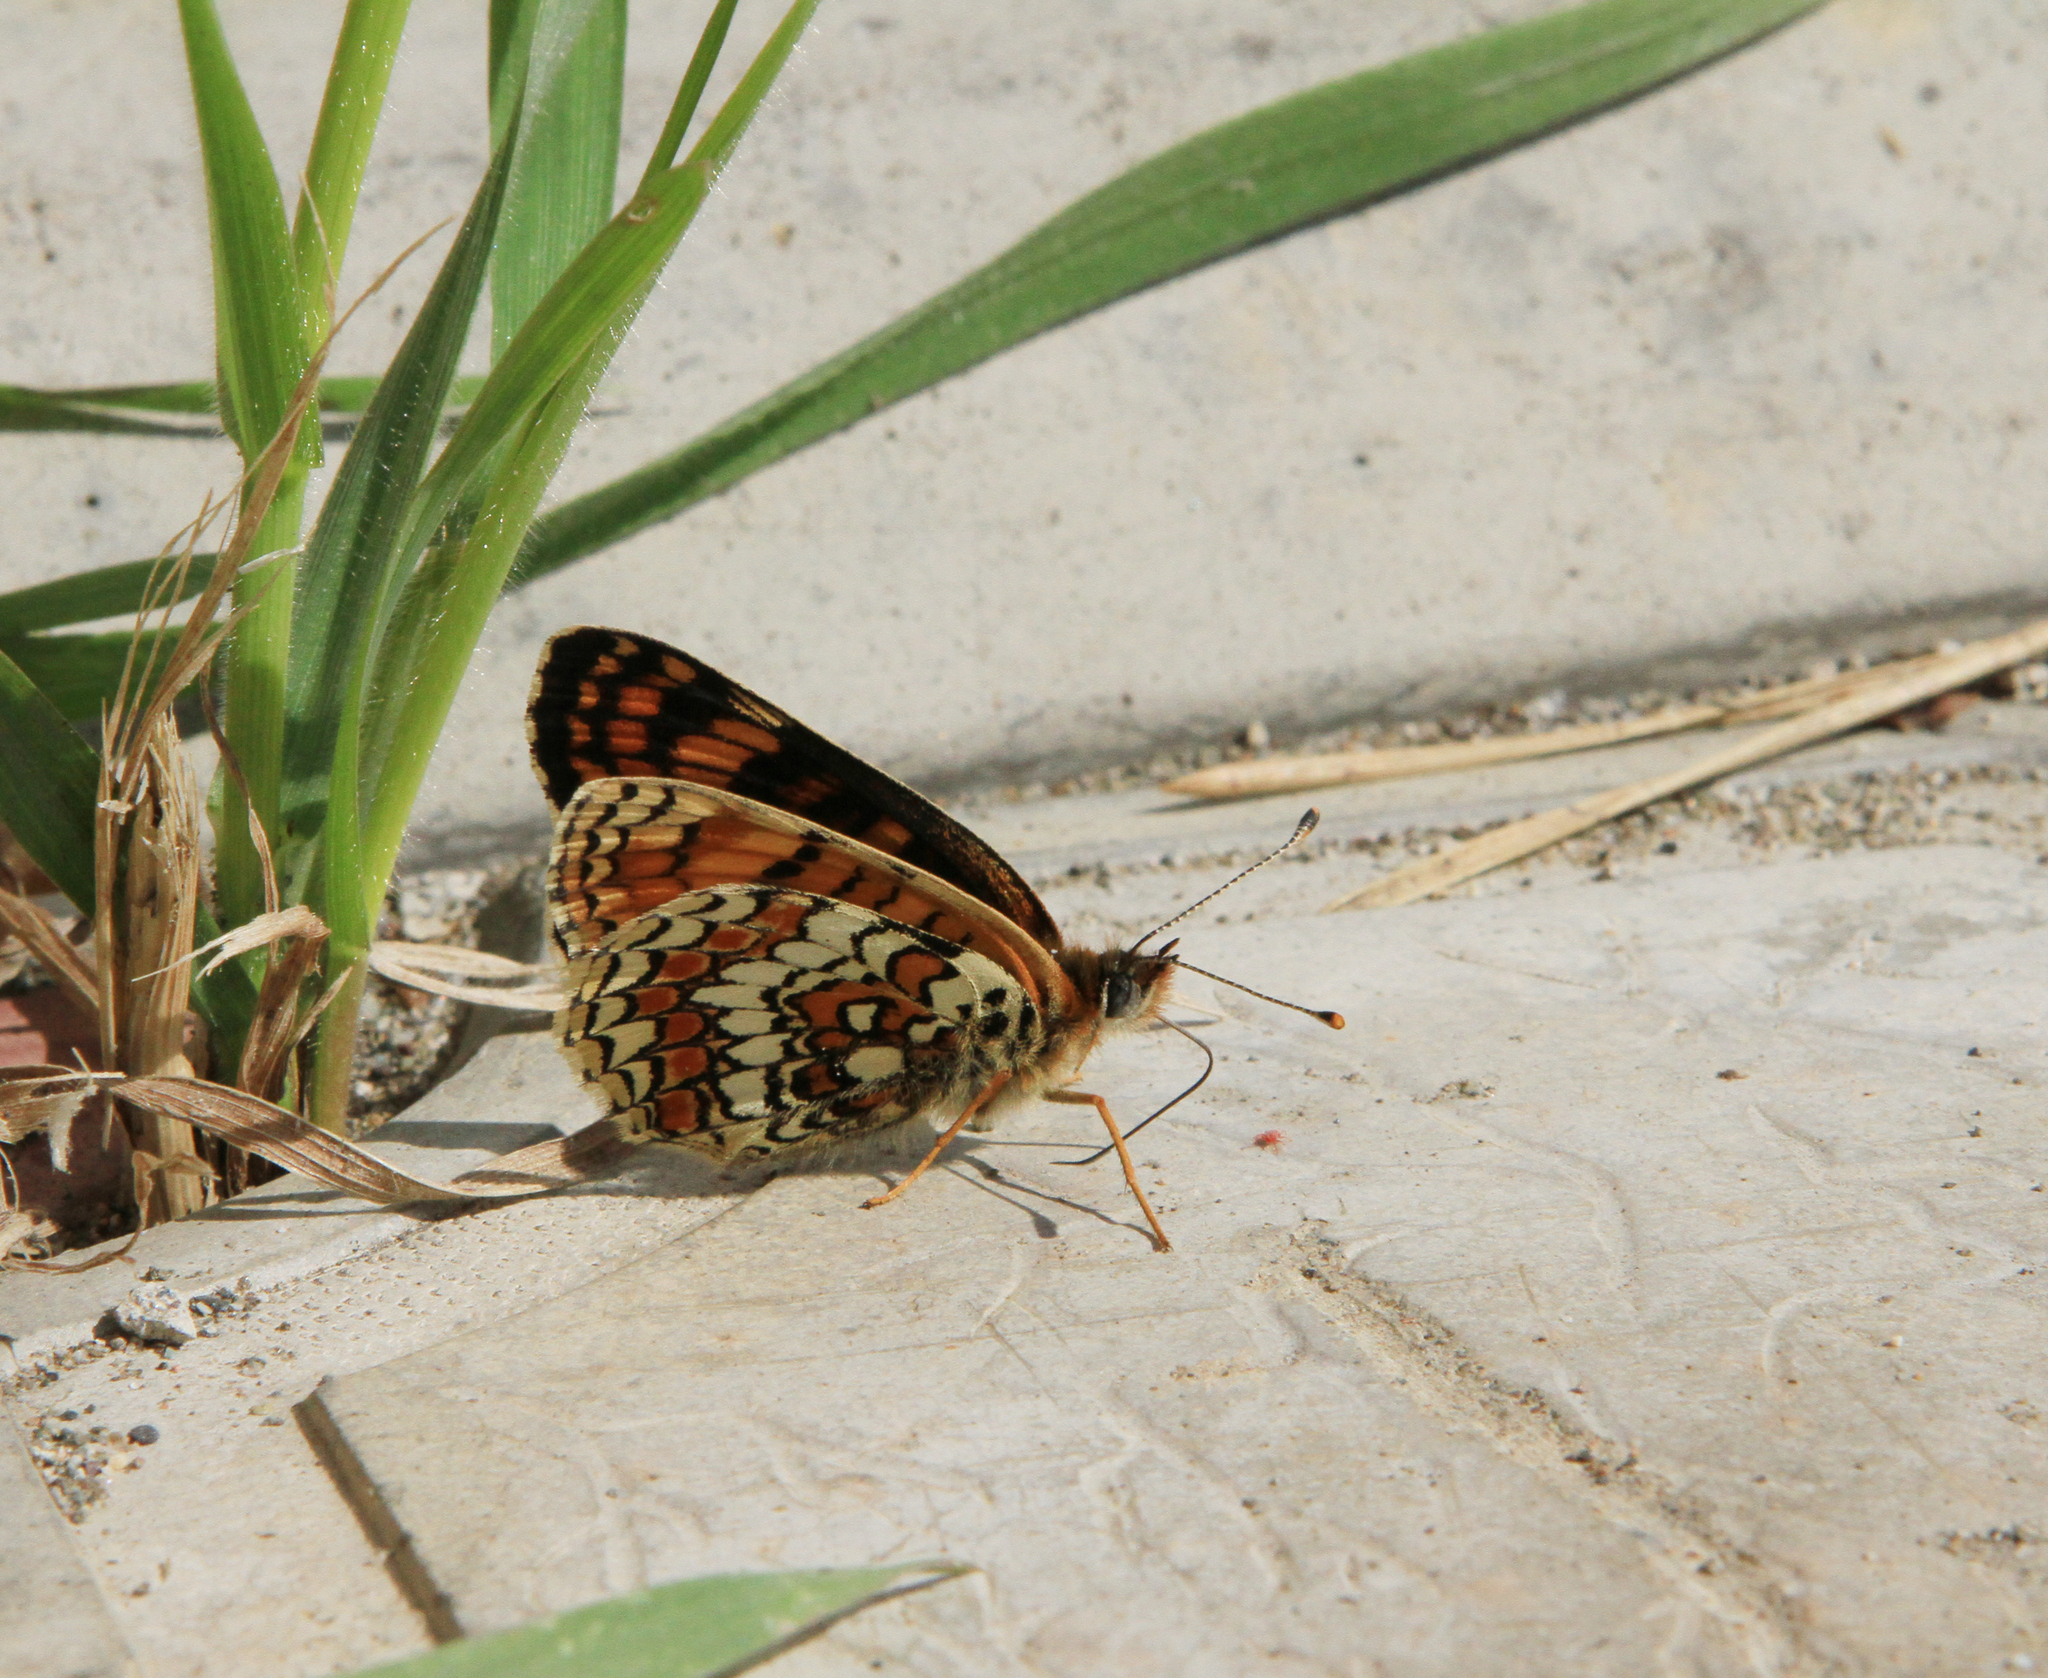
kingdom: Animalia
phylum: Arthropoda
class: Insecta
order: Lepidoptera
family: Nymphalidae
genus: Melitaea
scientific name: Melitaea phoebe
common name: Knapweed fritillary
